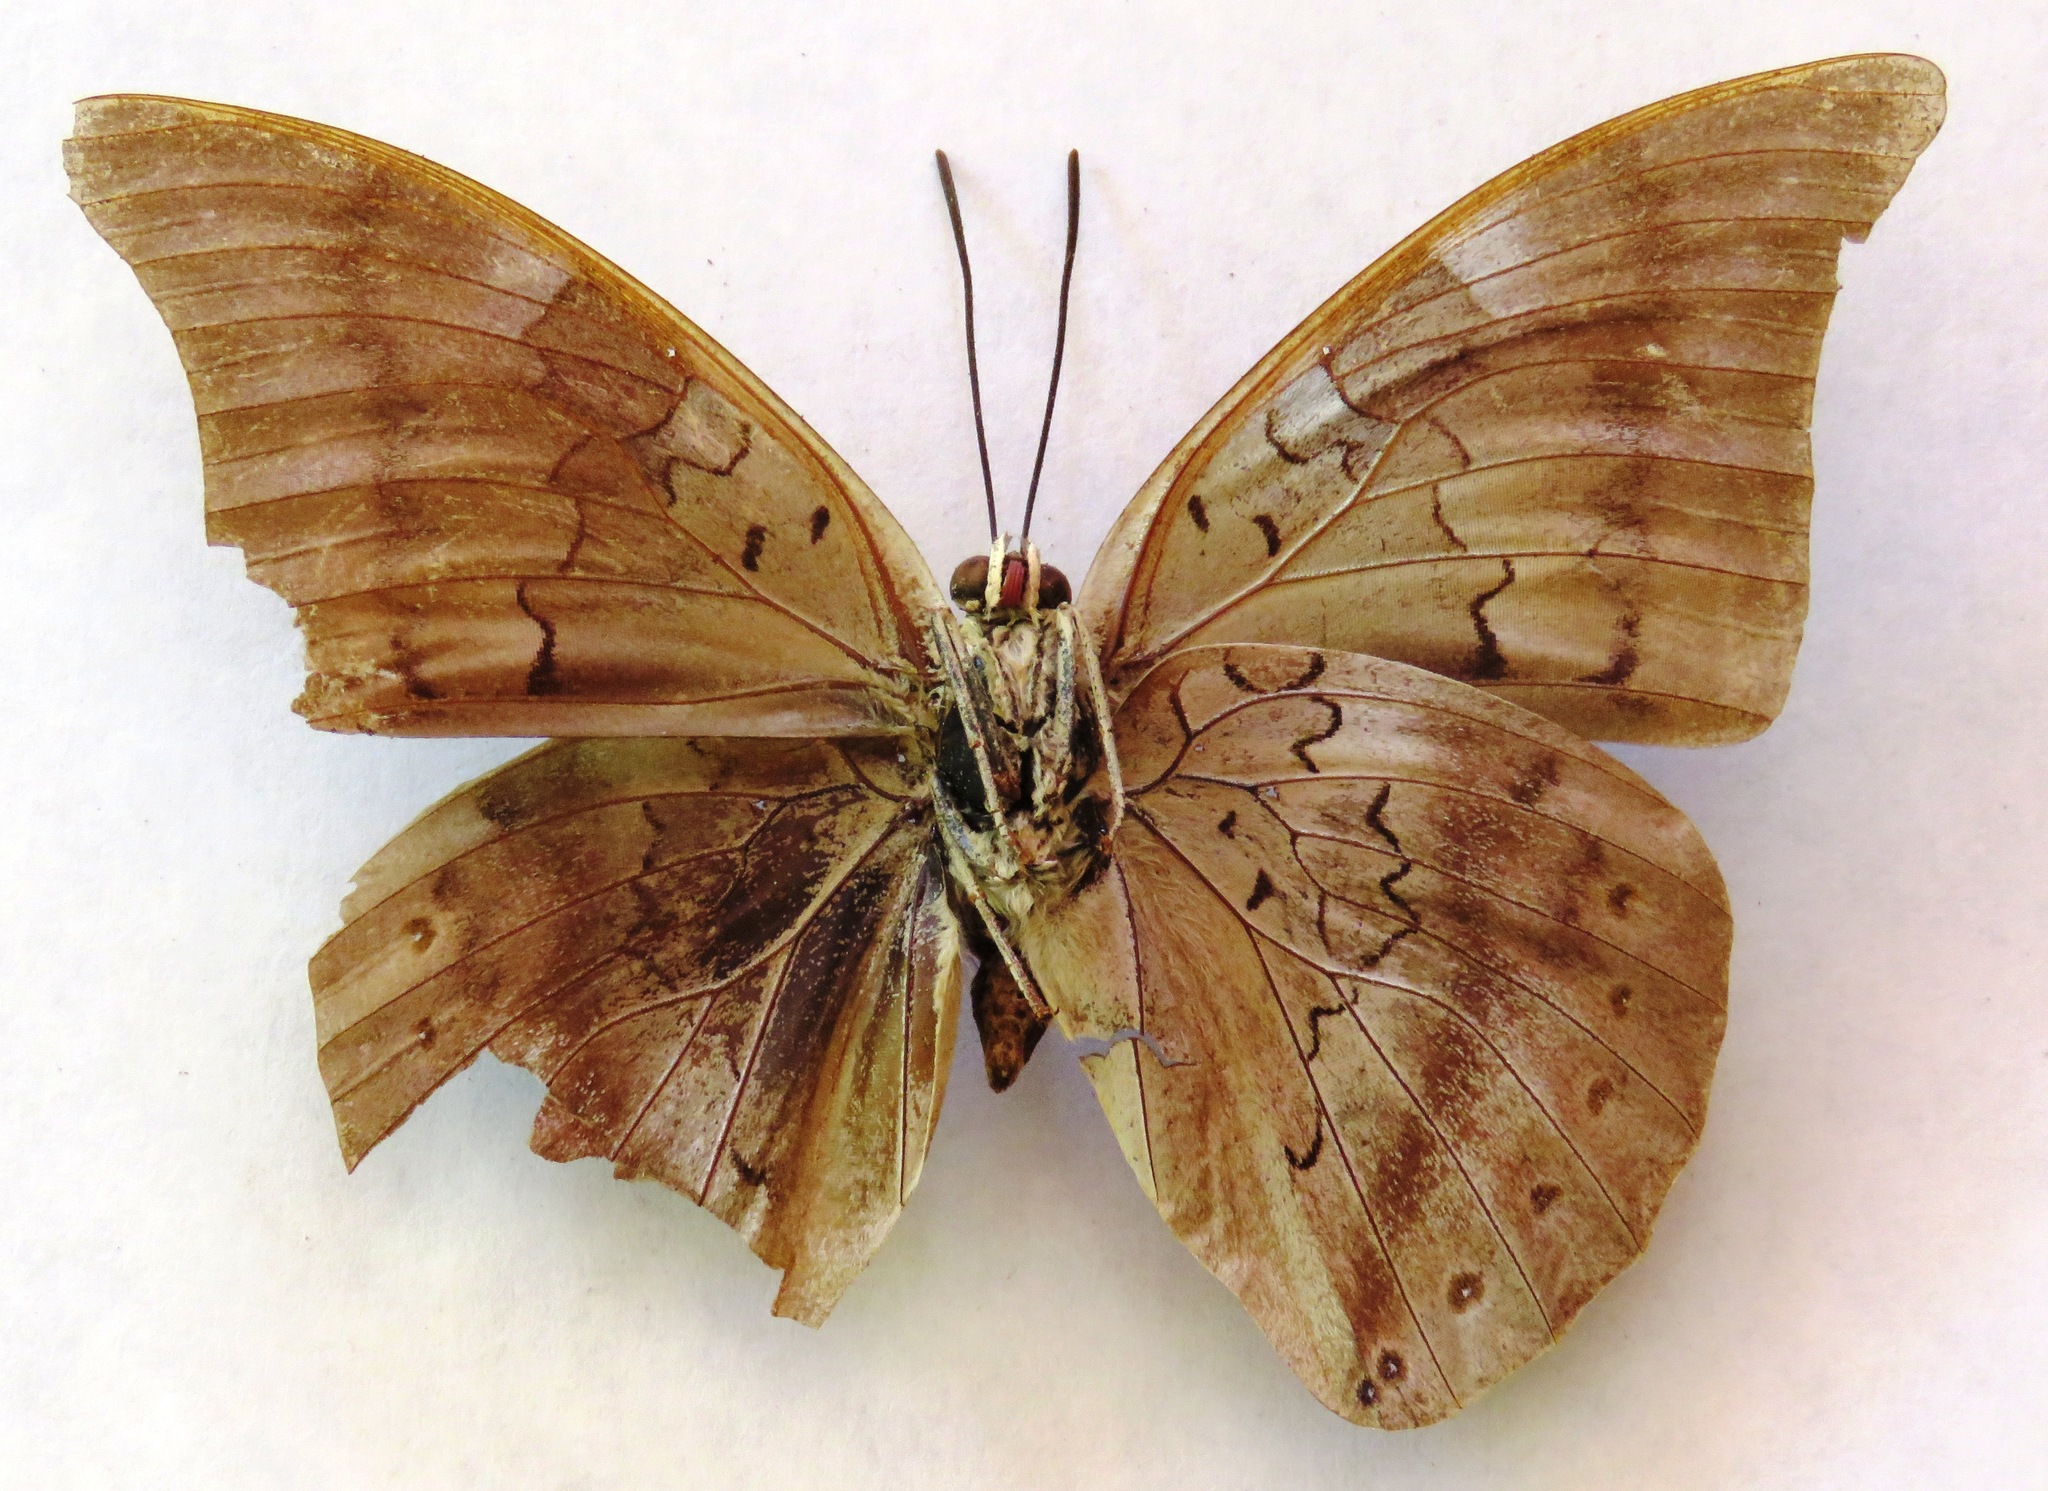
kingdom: Animalia
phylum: Arthropoda
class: Insecta
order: Lepidoptera
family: Nymphalidae
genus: Prepona
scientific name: Prepona Archaeoprepona phaedra
